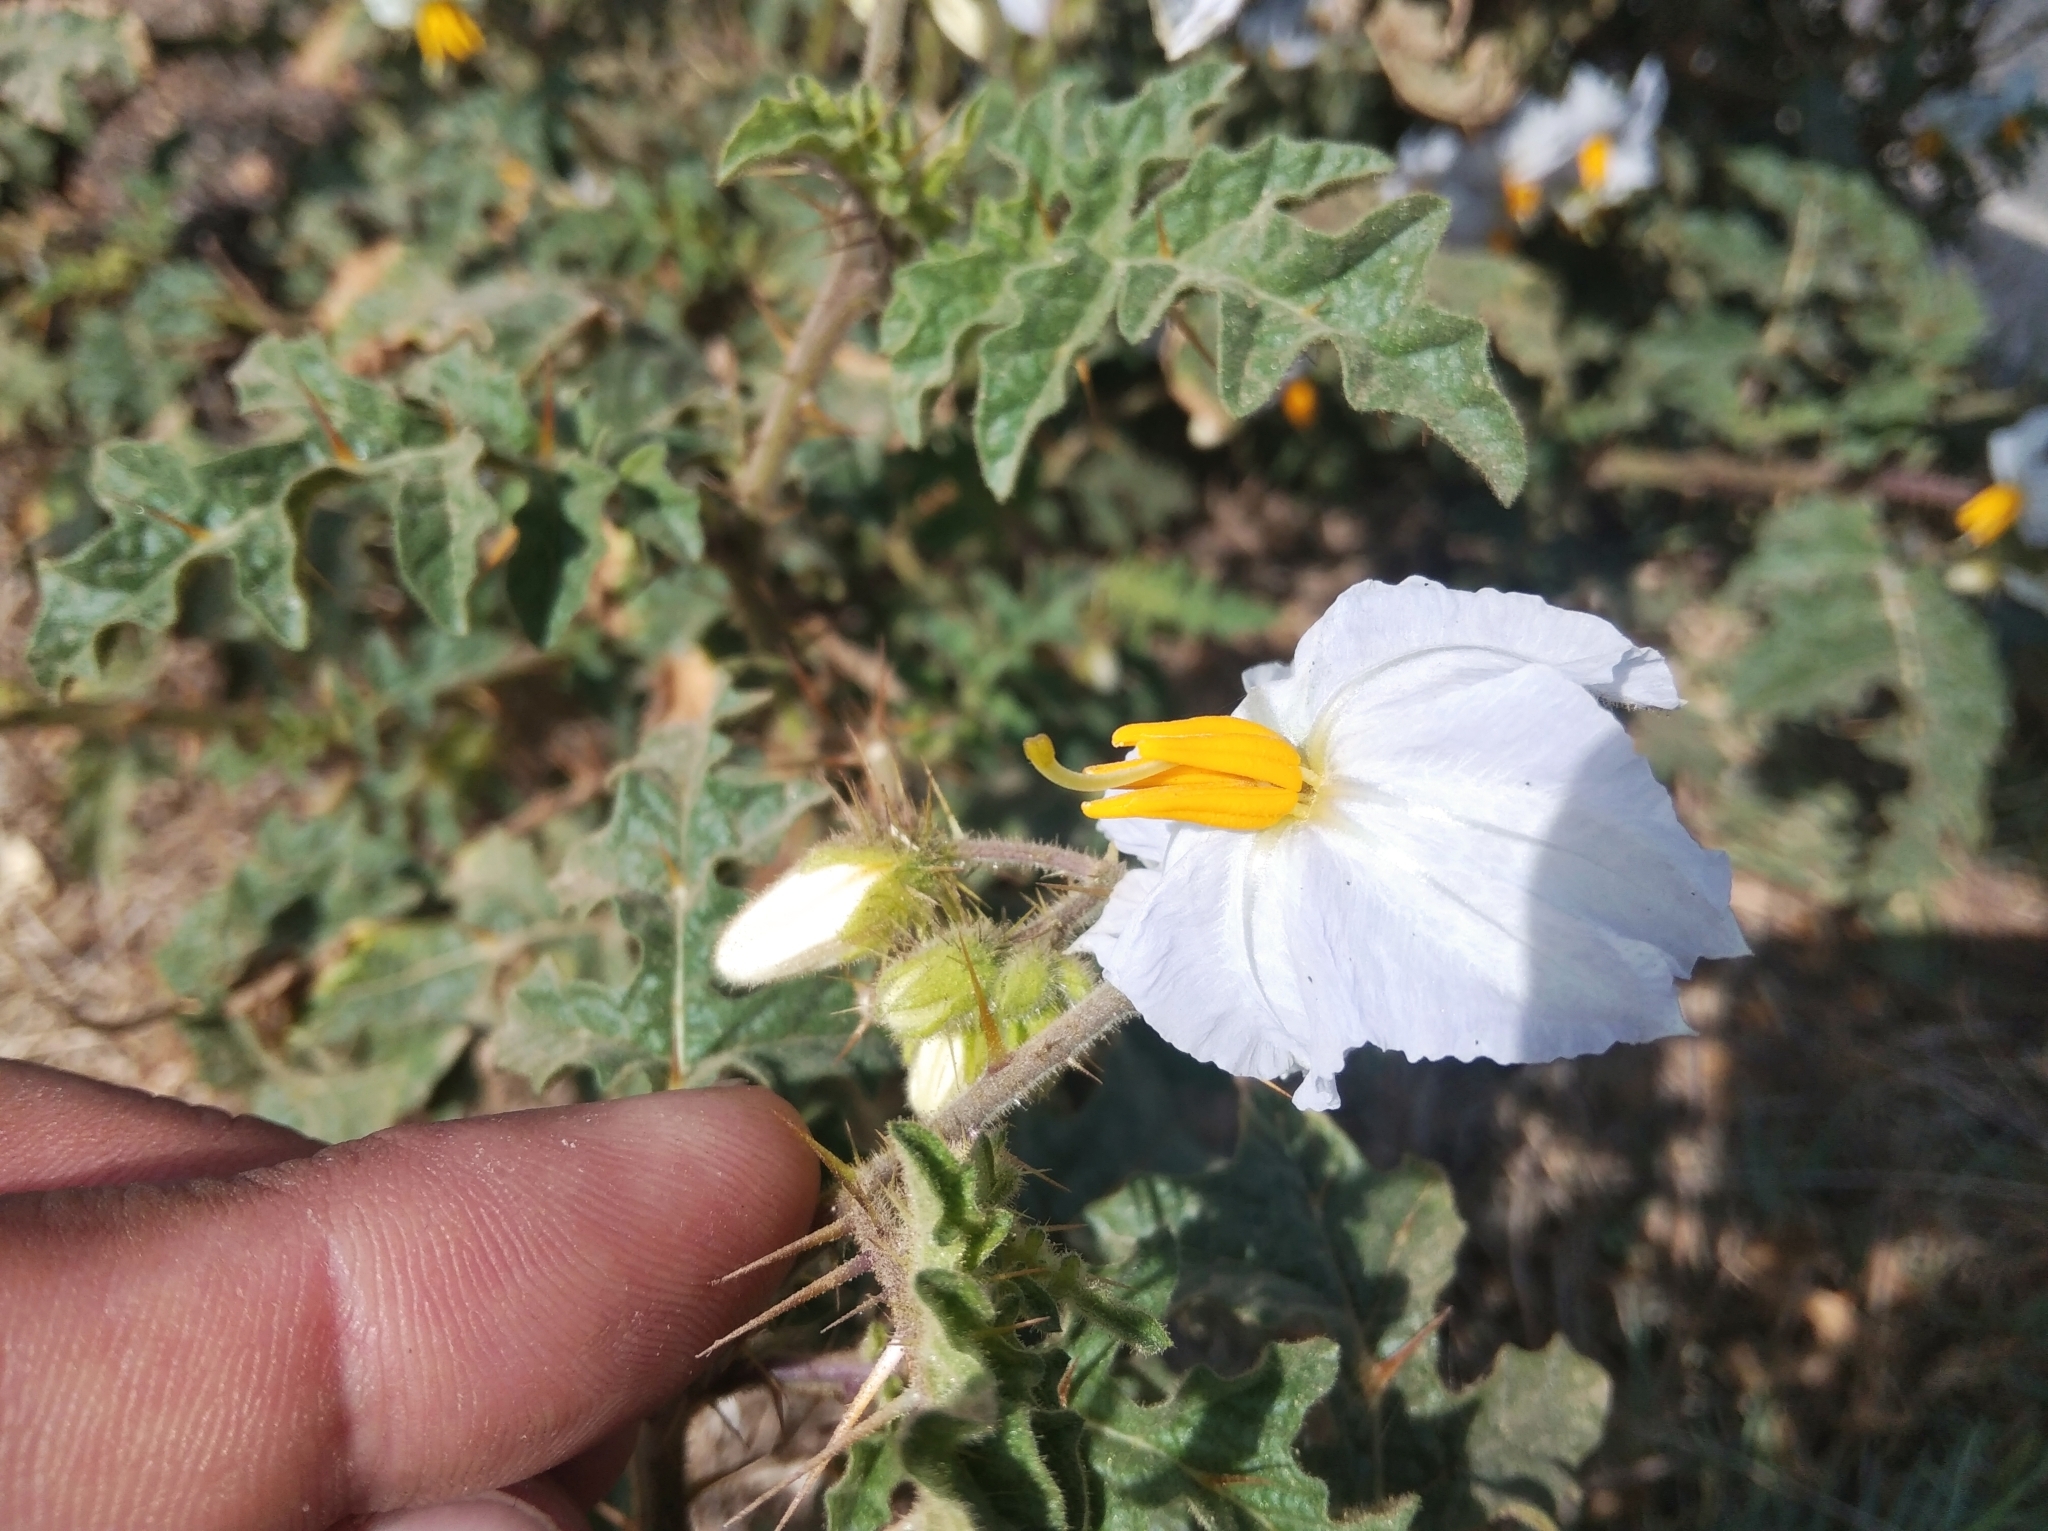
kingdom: Plantae
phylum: Tracheophyta
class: Magnoliopsida
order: Solanales
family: Solanaceae
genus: Solanum
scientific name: Solanum sisymbriifolium
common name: Red buffalo-bur
